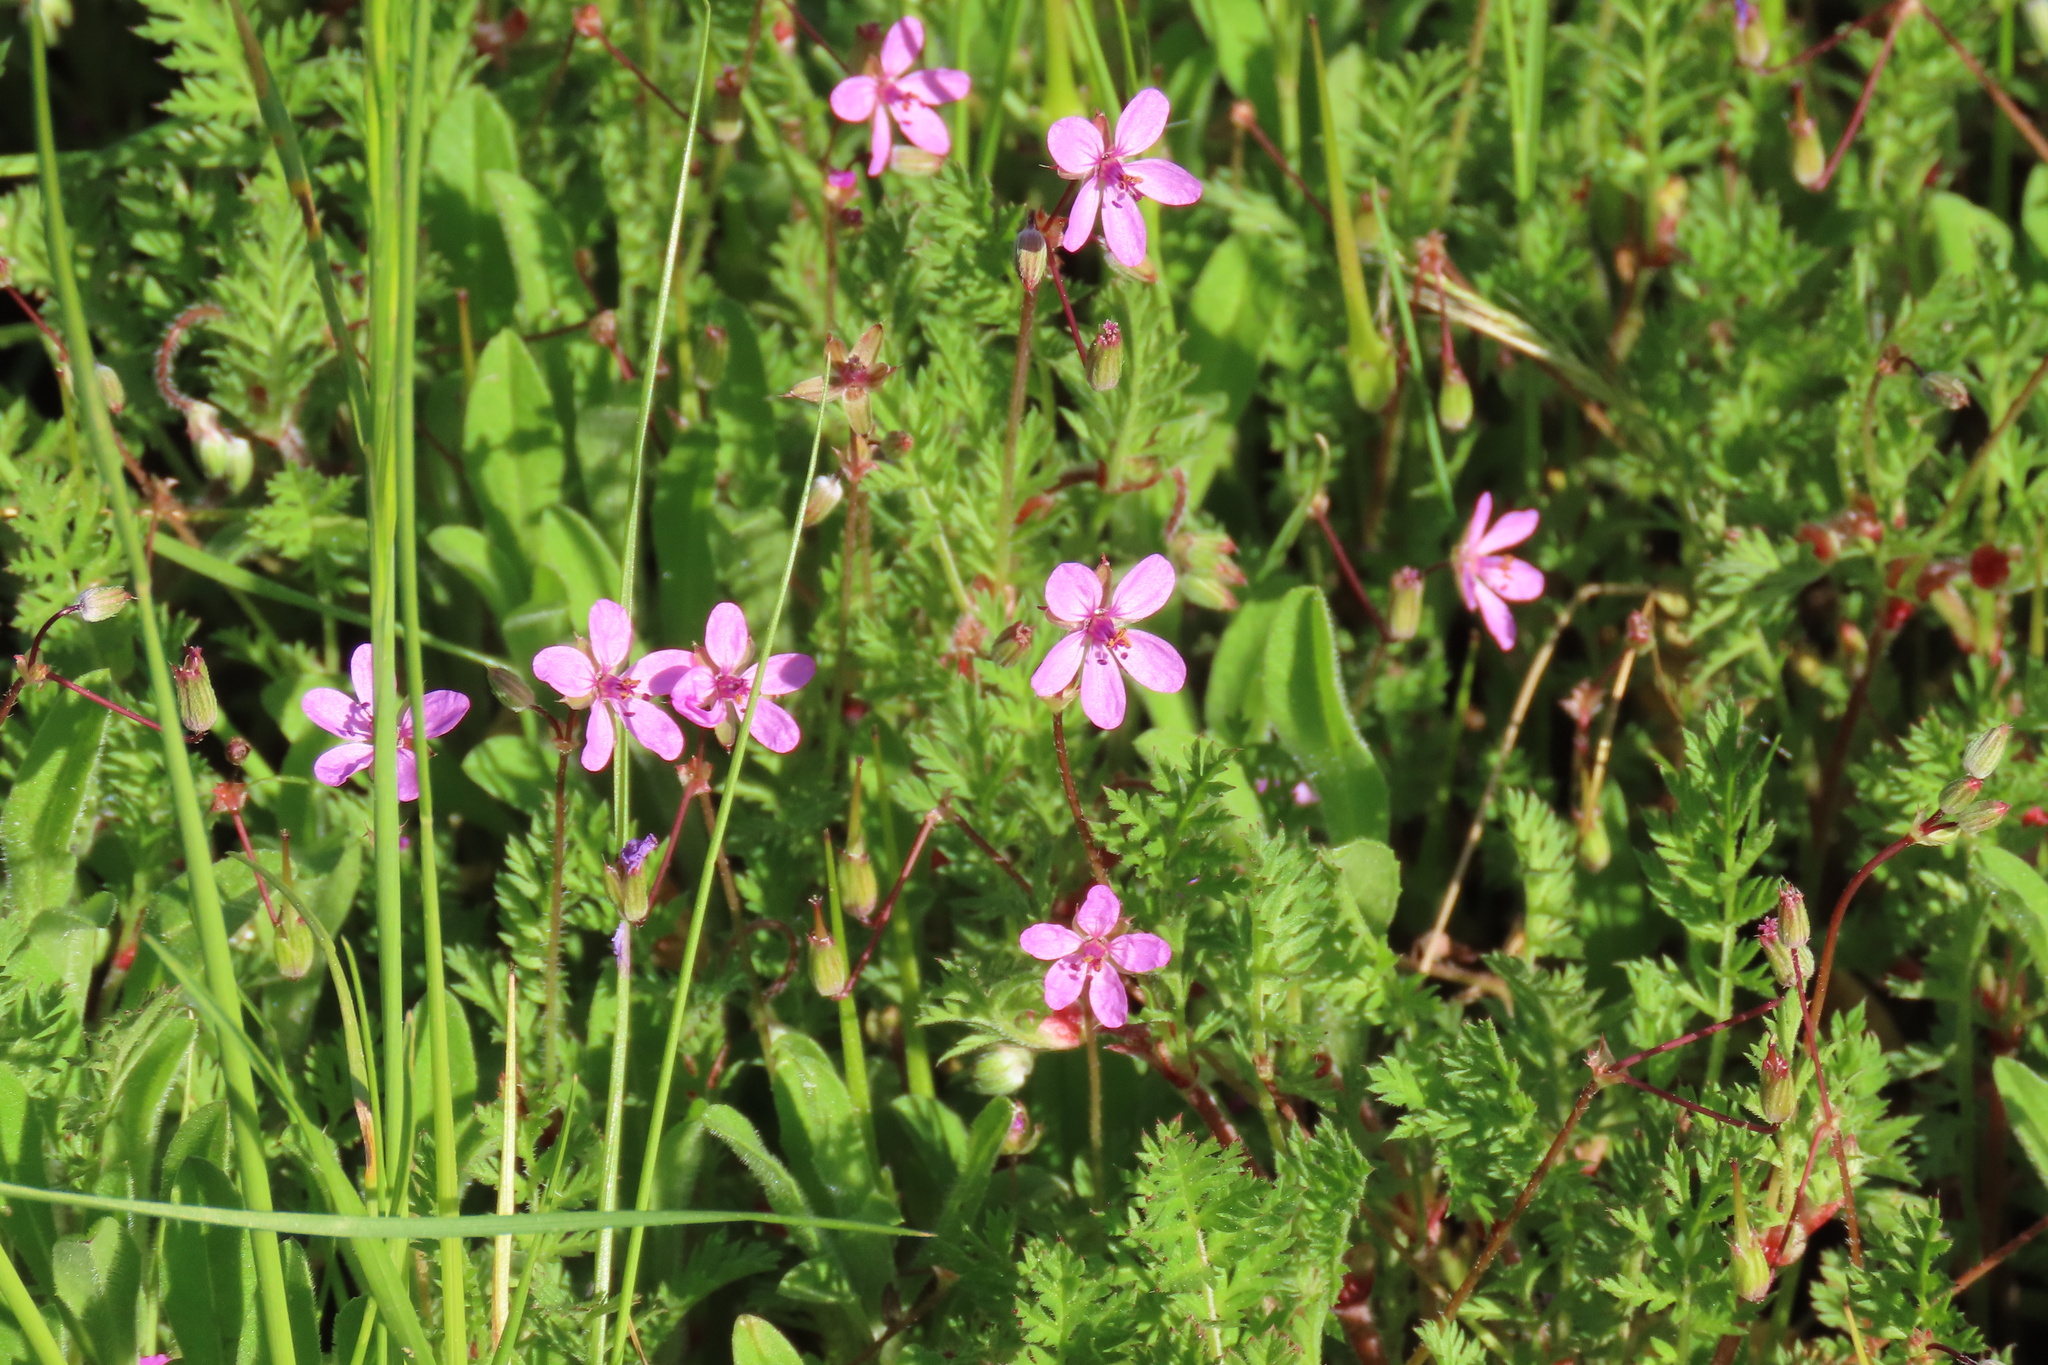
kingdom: Plantae
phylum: Tracheophyta
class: Magnoliopsida
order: Geraniales
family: Geraniaceae
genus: Erodium
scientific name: Erodium cicutarium
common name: Common stork's-bill
